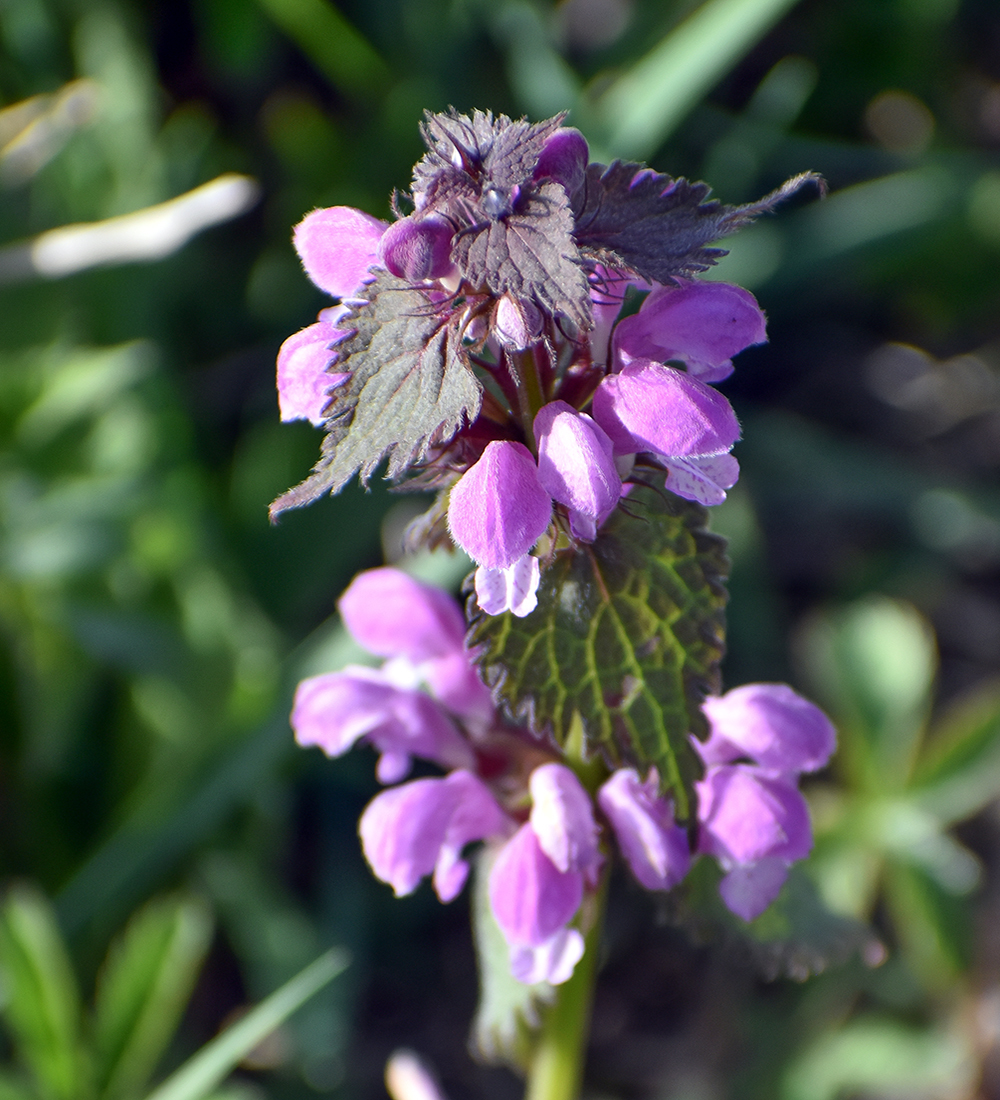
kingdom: Plantae
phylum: Tracheophyta
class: Magnoliopsida
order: Lamiales
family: Lamiaceae
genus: Lamium
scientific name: Lamium maculatum
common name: Spotted dead-nettle
